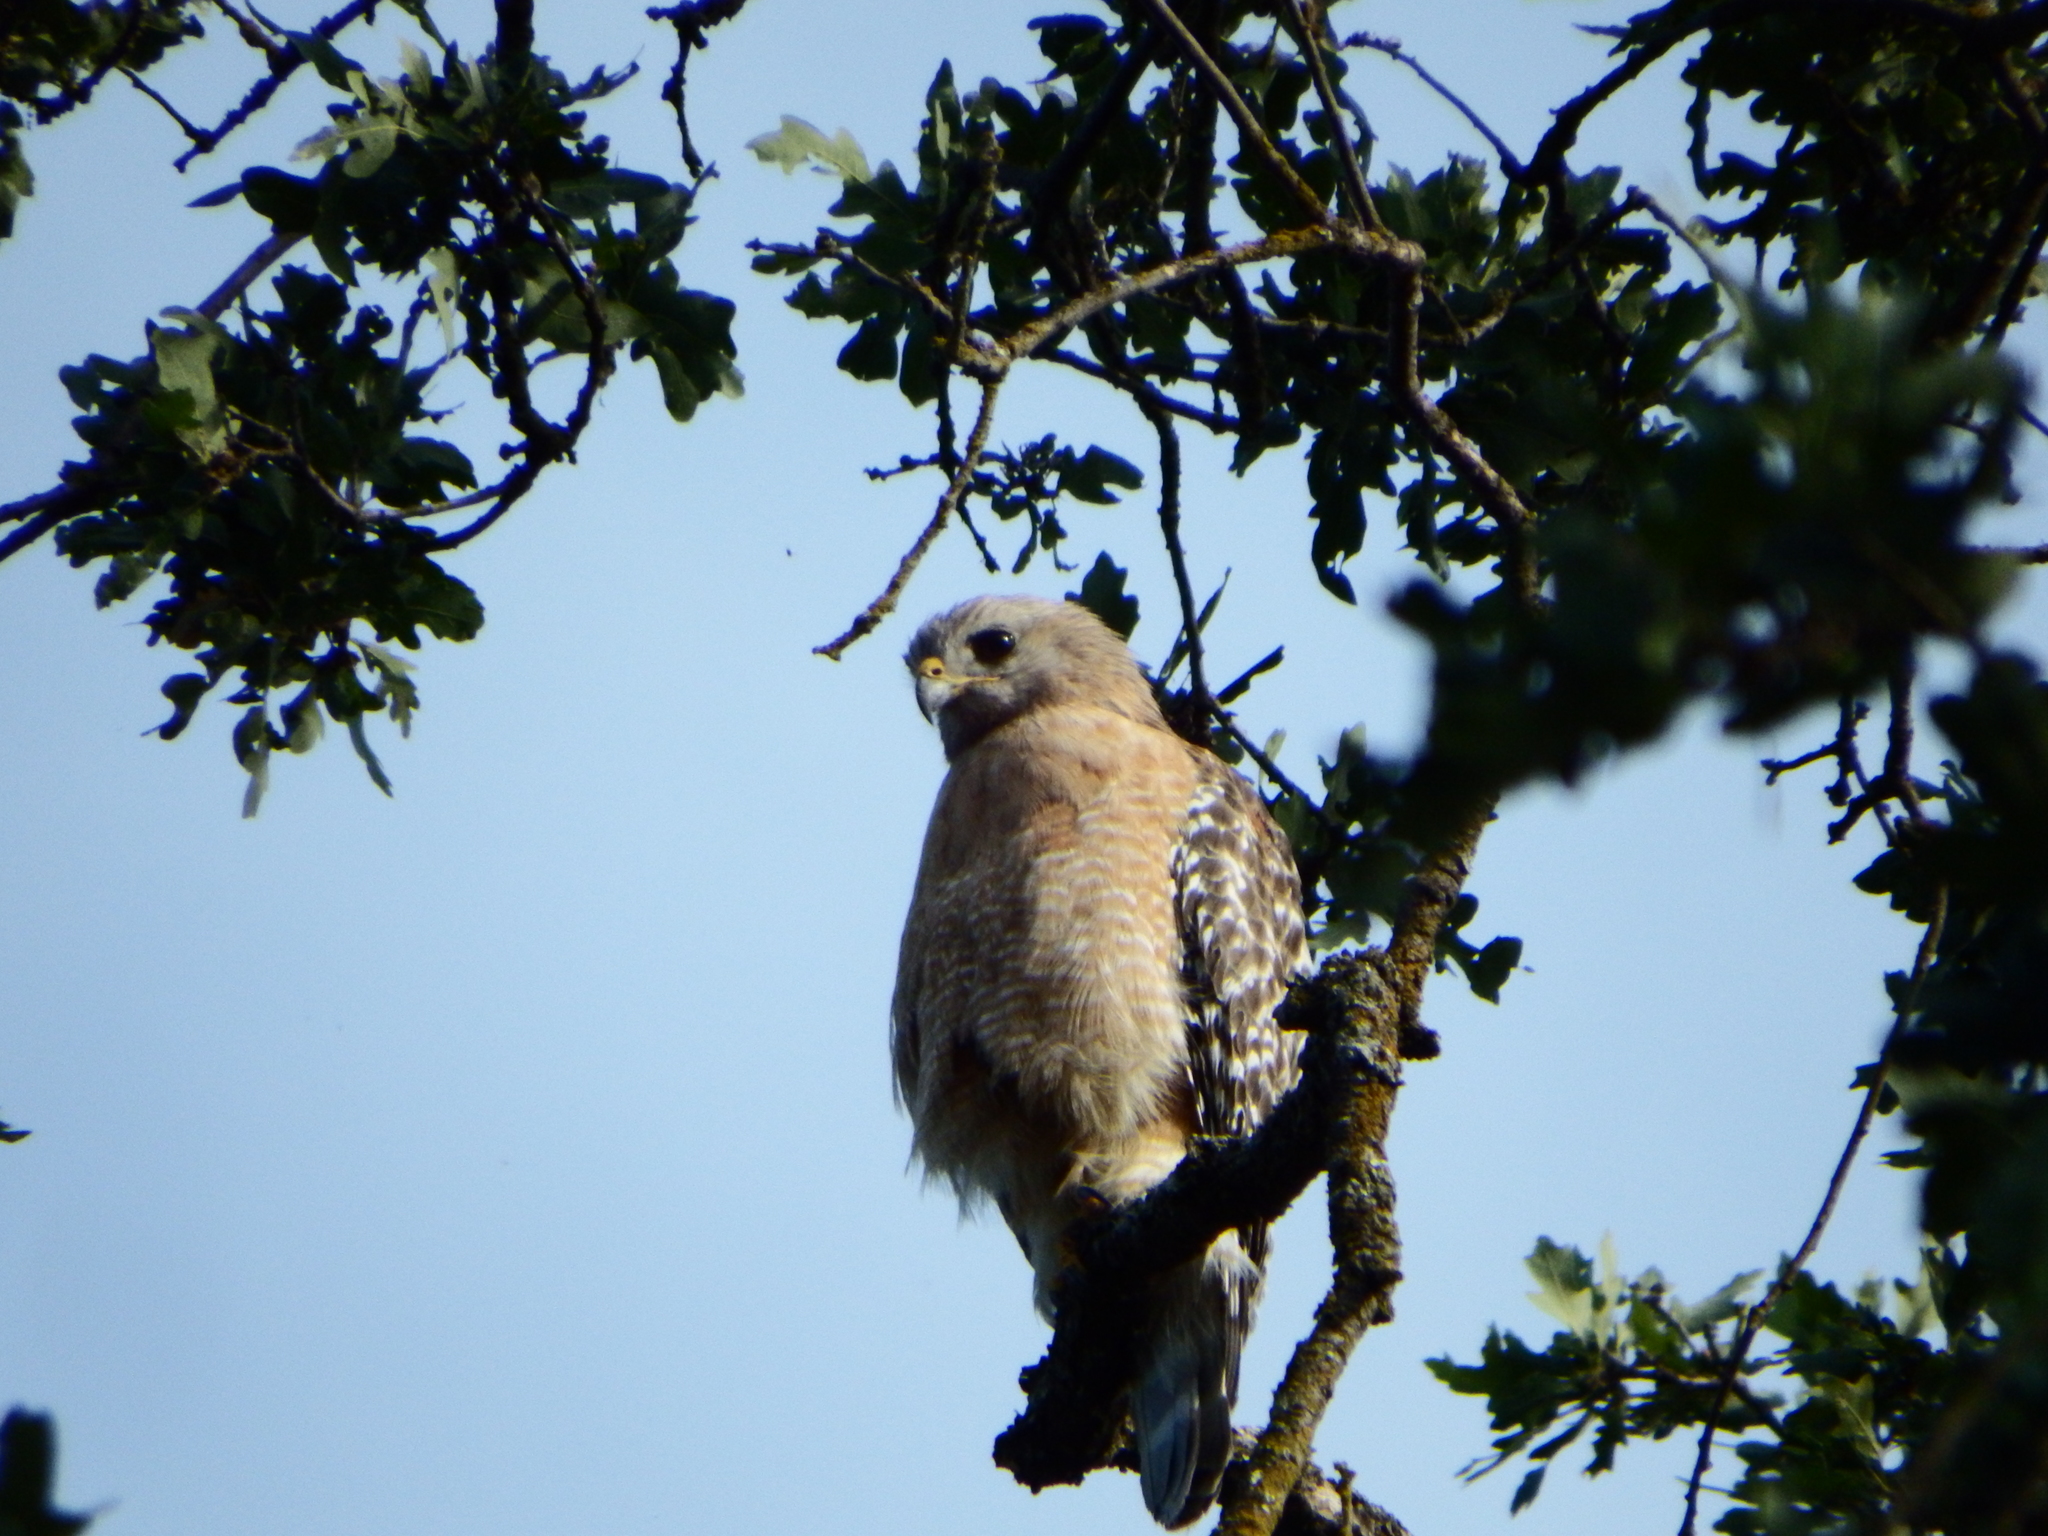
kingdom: Animalia
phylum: Chordata
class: Aves
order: Accipitriformes
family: Accipitridae
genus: Buteo
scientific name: Buteo lineatus
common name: Red-shouldered hawk
